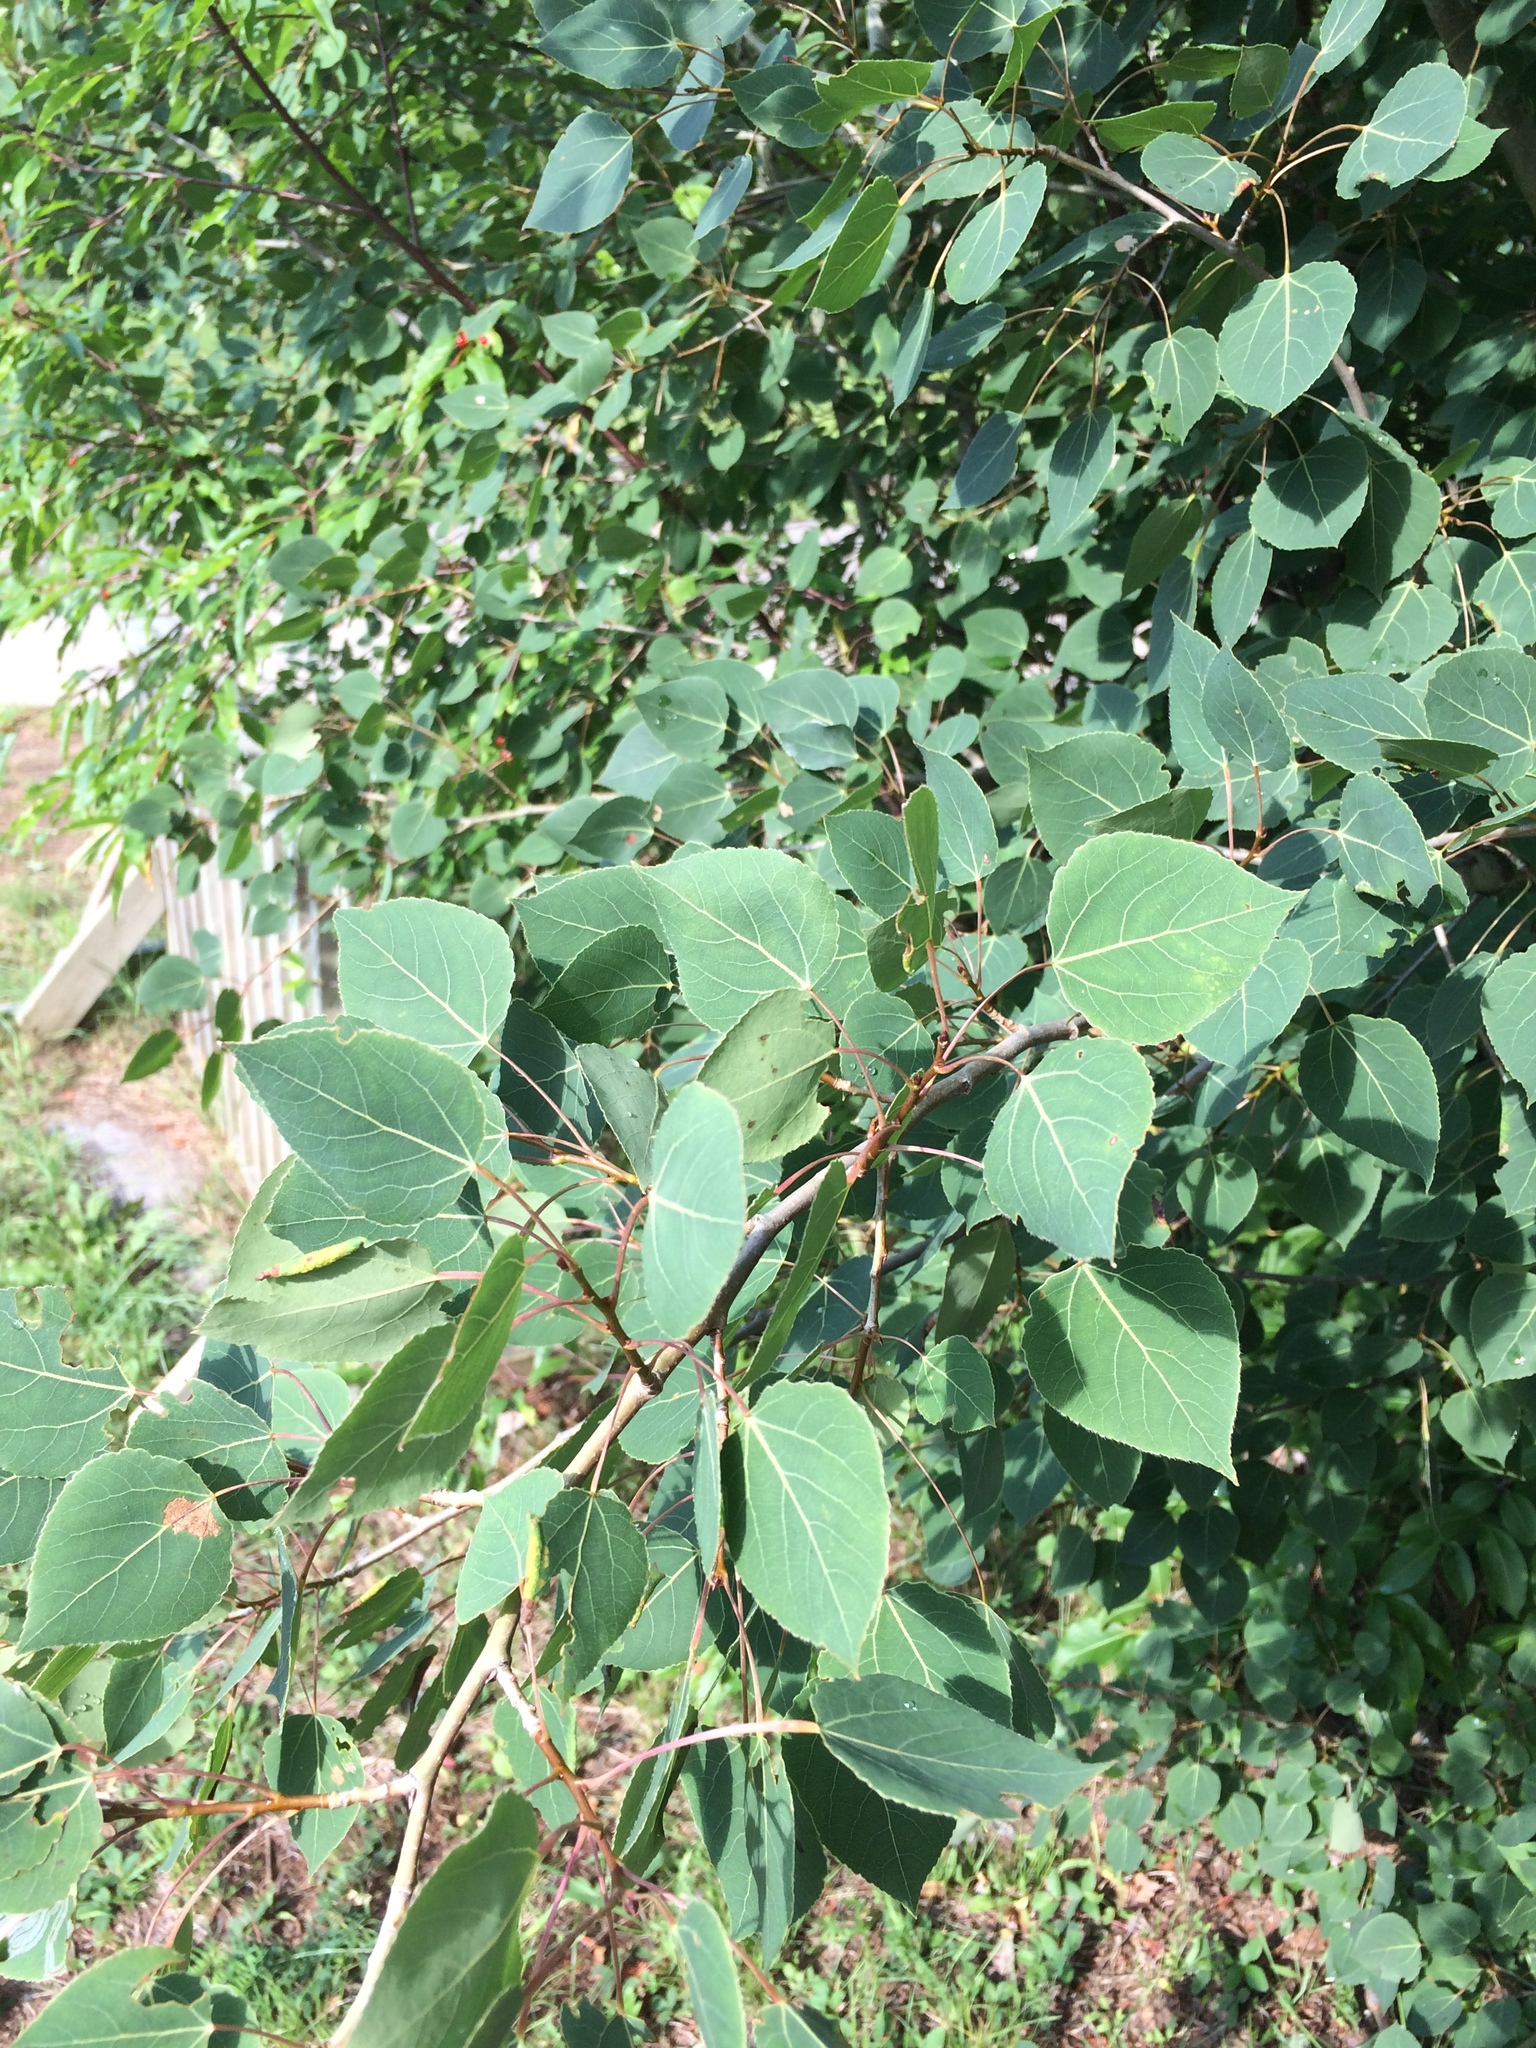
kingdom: Plantae
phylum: Tracheophyta
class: Magnoliopsida
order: Malpighiales
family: Salicaceae
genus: Populus
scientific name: Populus tremuloides
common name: Quaking aspen
